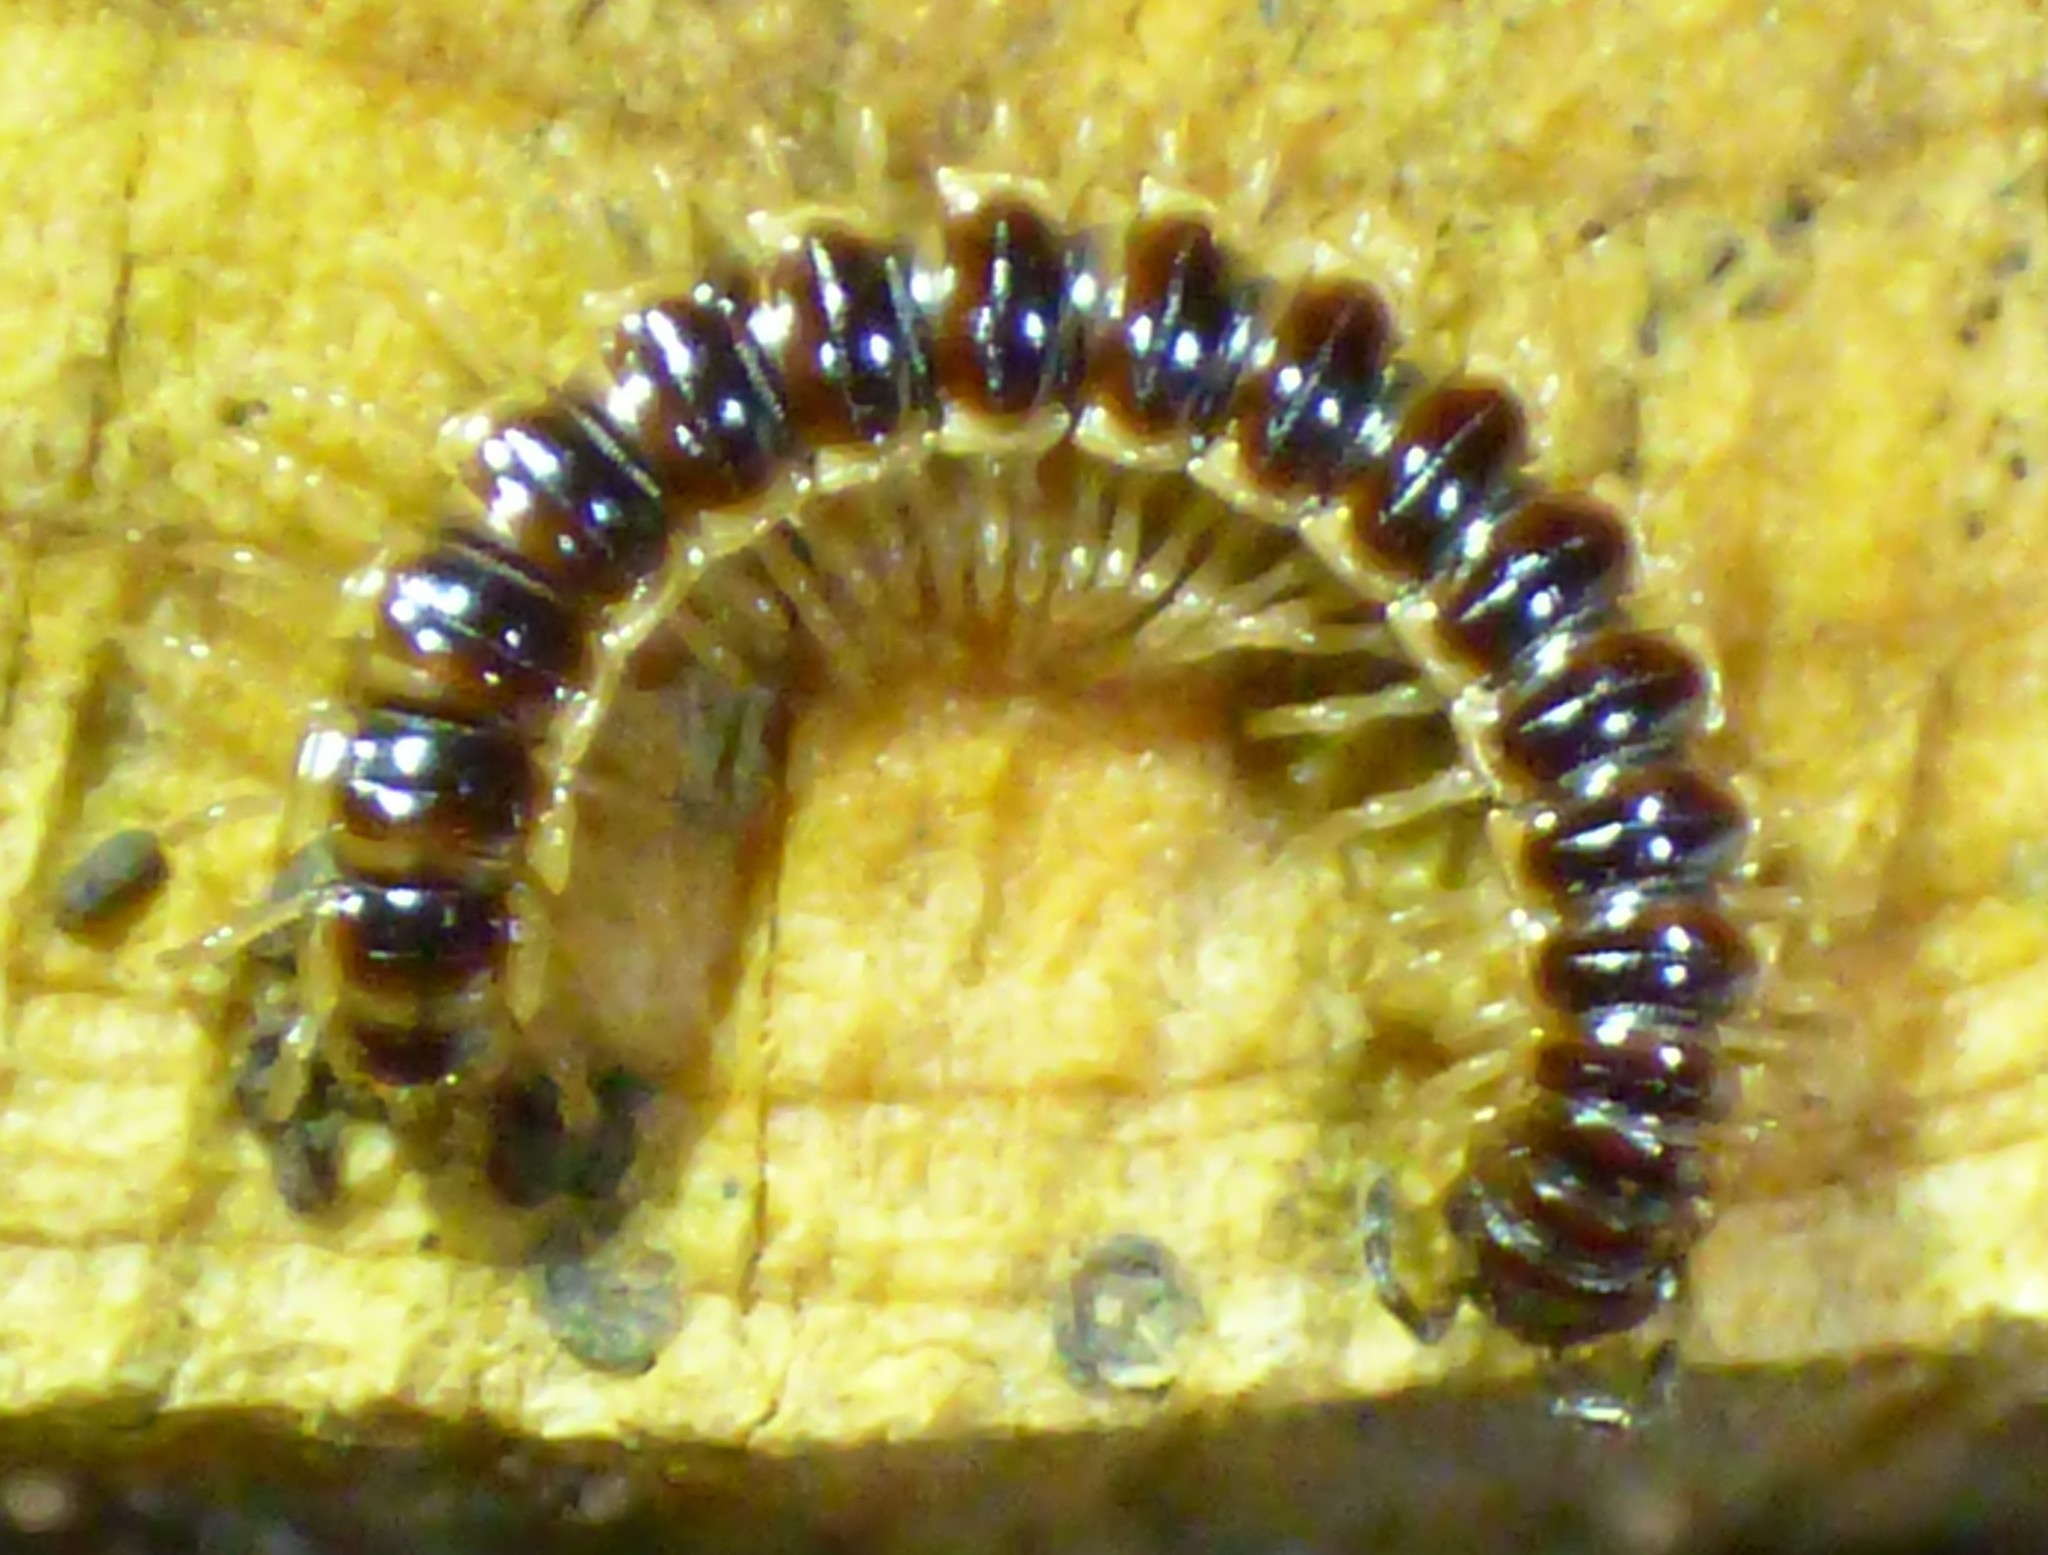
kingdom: Animalia
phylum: Arthropoda
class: Diplopoda
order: Polydesmida
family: Paradoxosomatidae
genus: Oxidus
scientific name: Oxidus gracilis
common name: Greenhouse millipede
